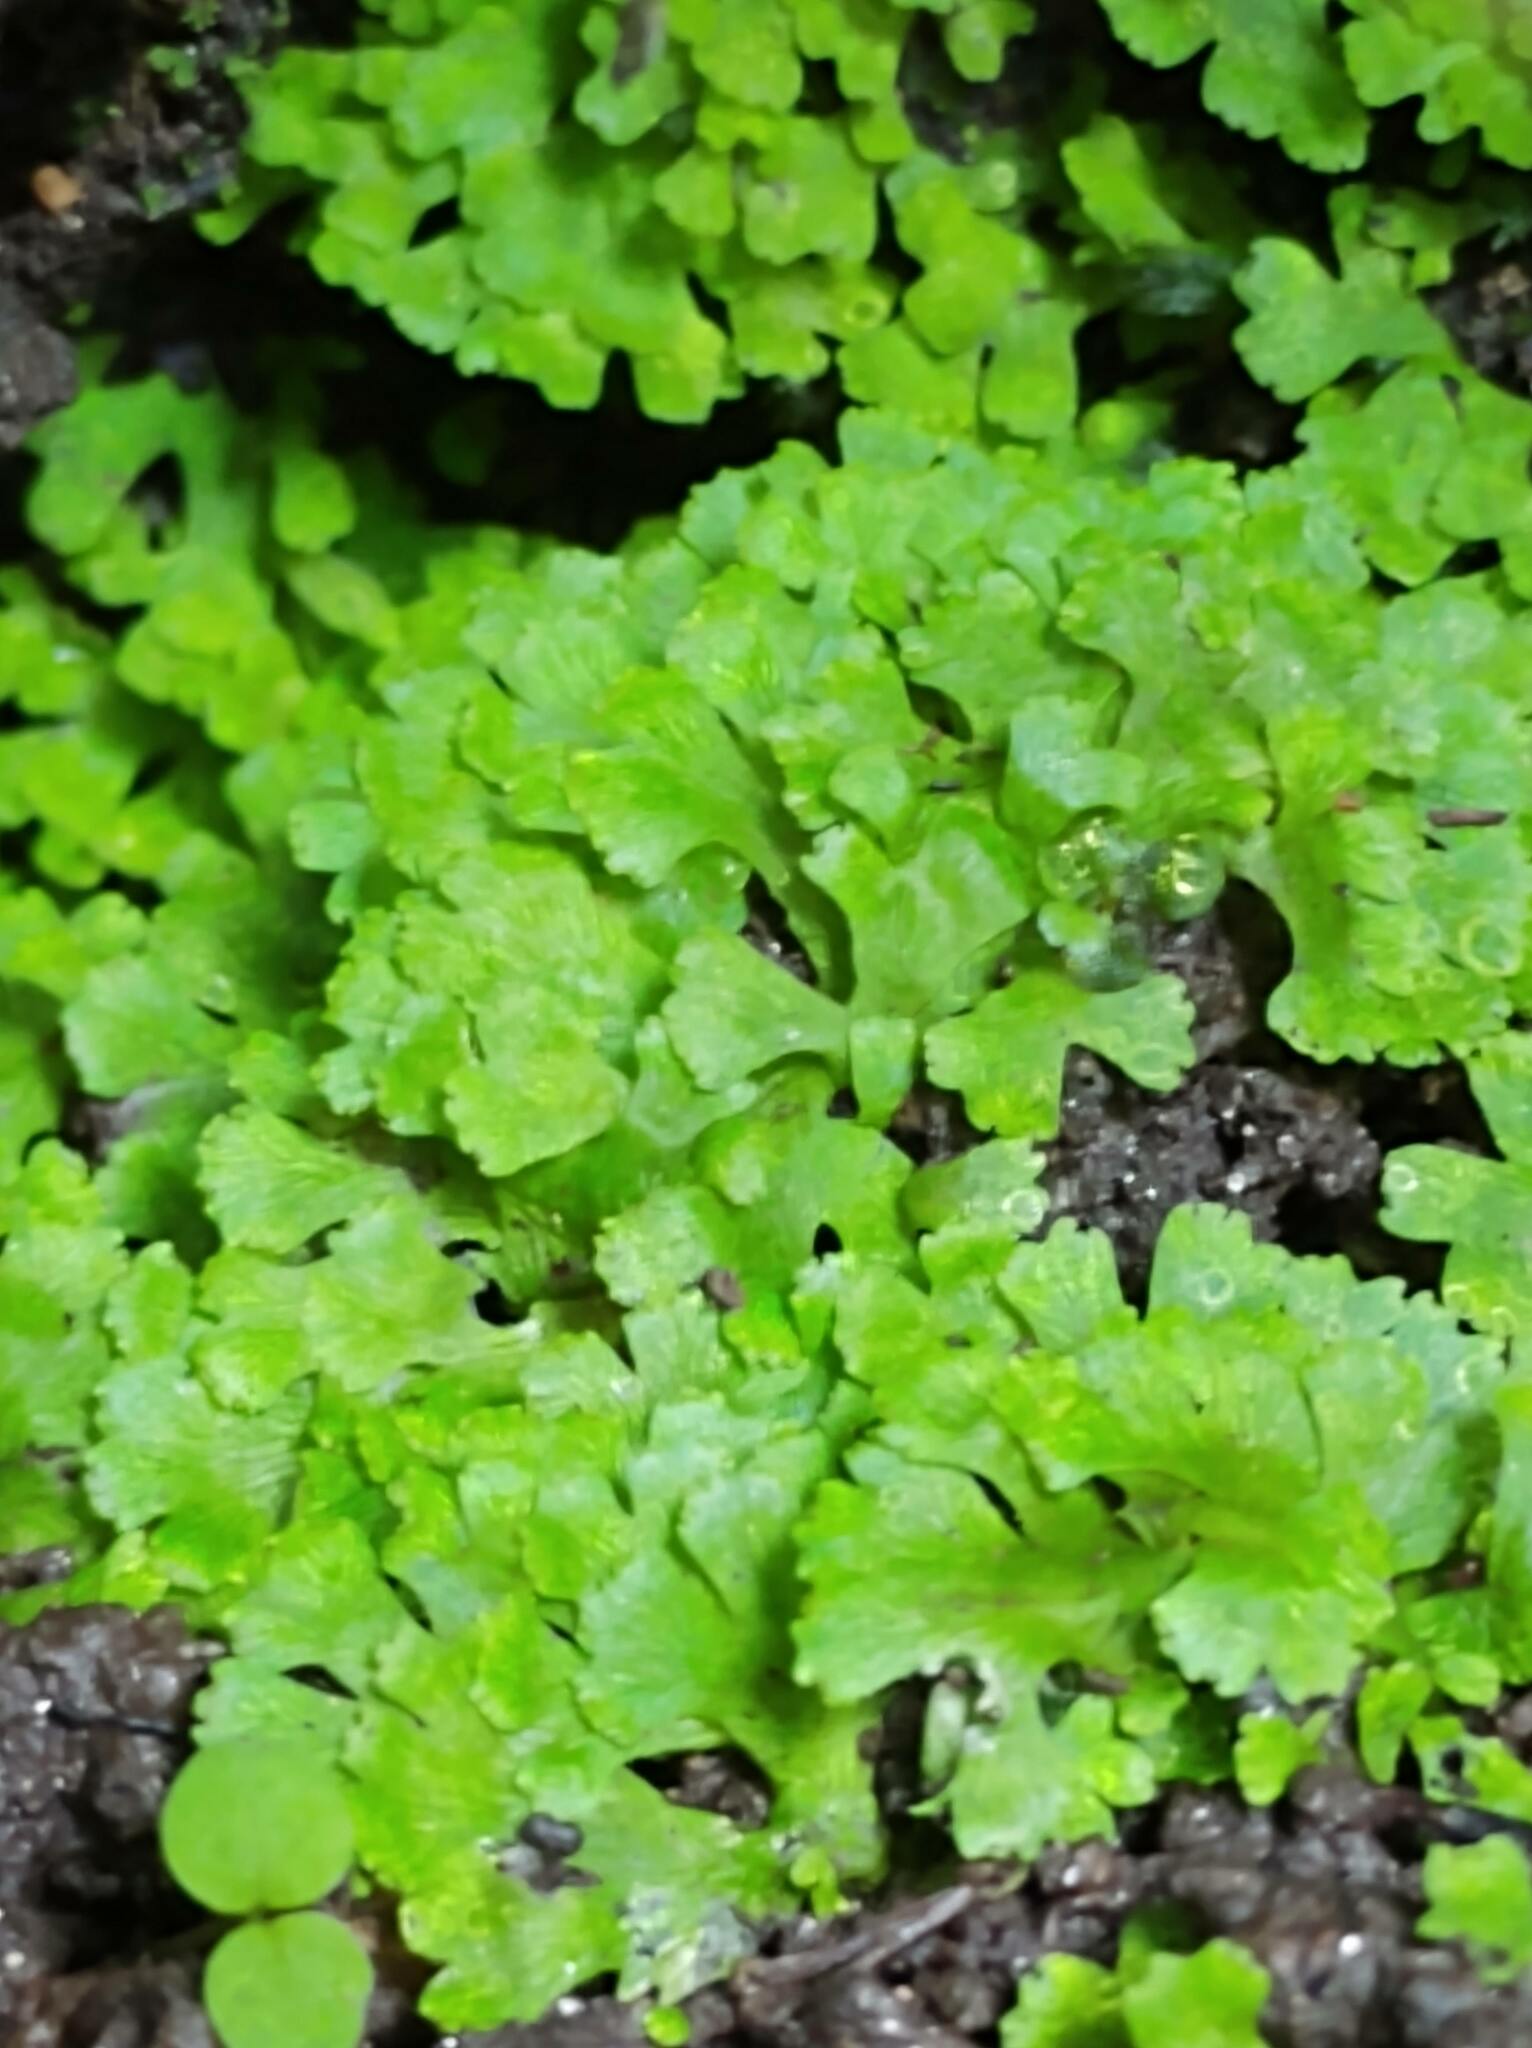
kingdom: Plantae
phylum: Marchantiophyta
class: Marchantiopsida
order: Marchantiales
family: Cyathodiaceae
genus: Cyathodium
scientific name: Cyathodium cavernarum
